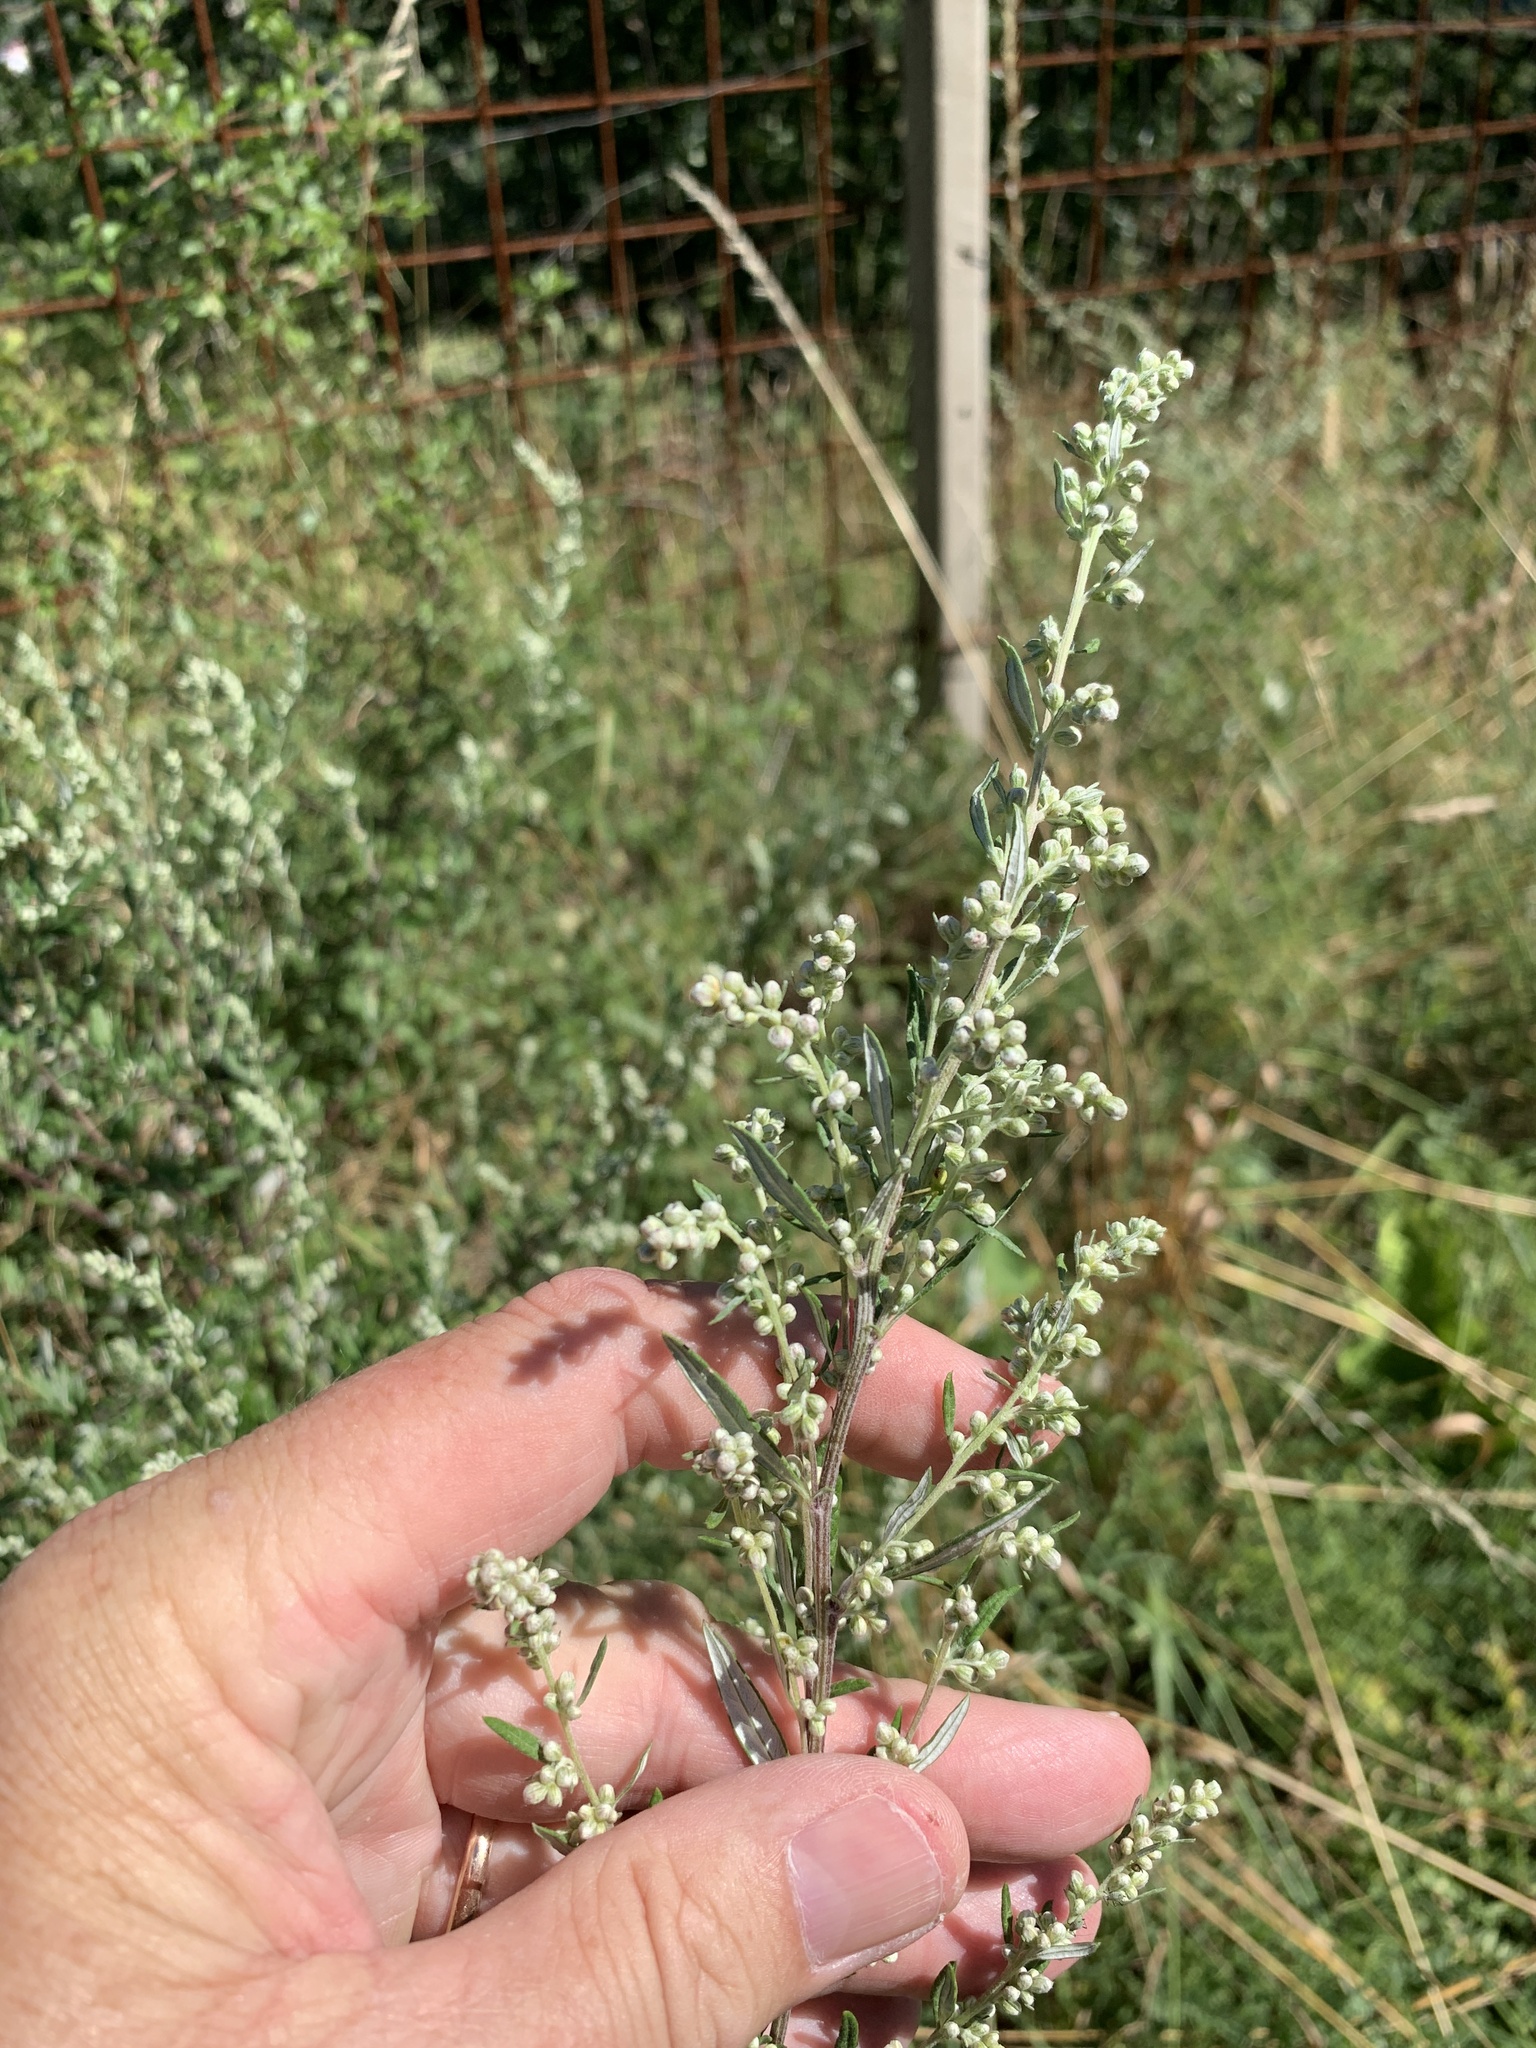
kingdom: Plantae
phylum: Tracheophyta
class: Magnoliopsida
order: Asterales
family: Asteraceae
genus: Artemisia
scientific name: Artemisia vulgaris
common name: Mugwort
